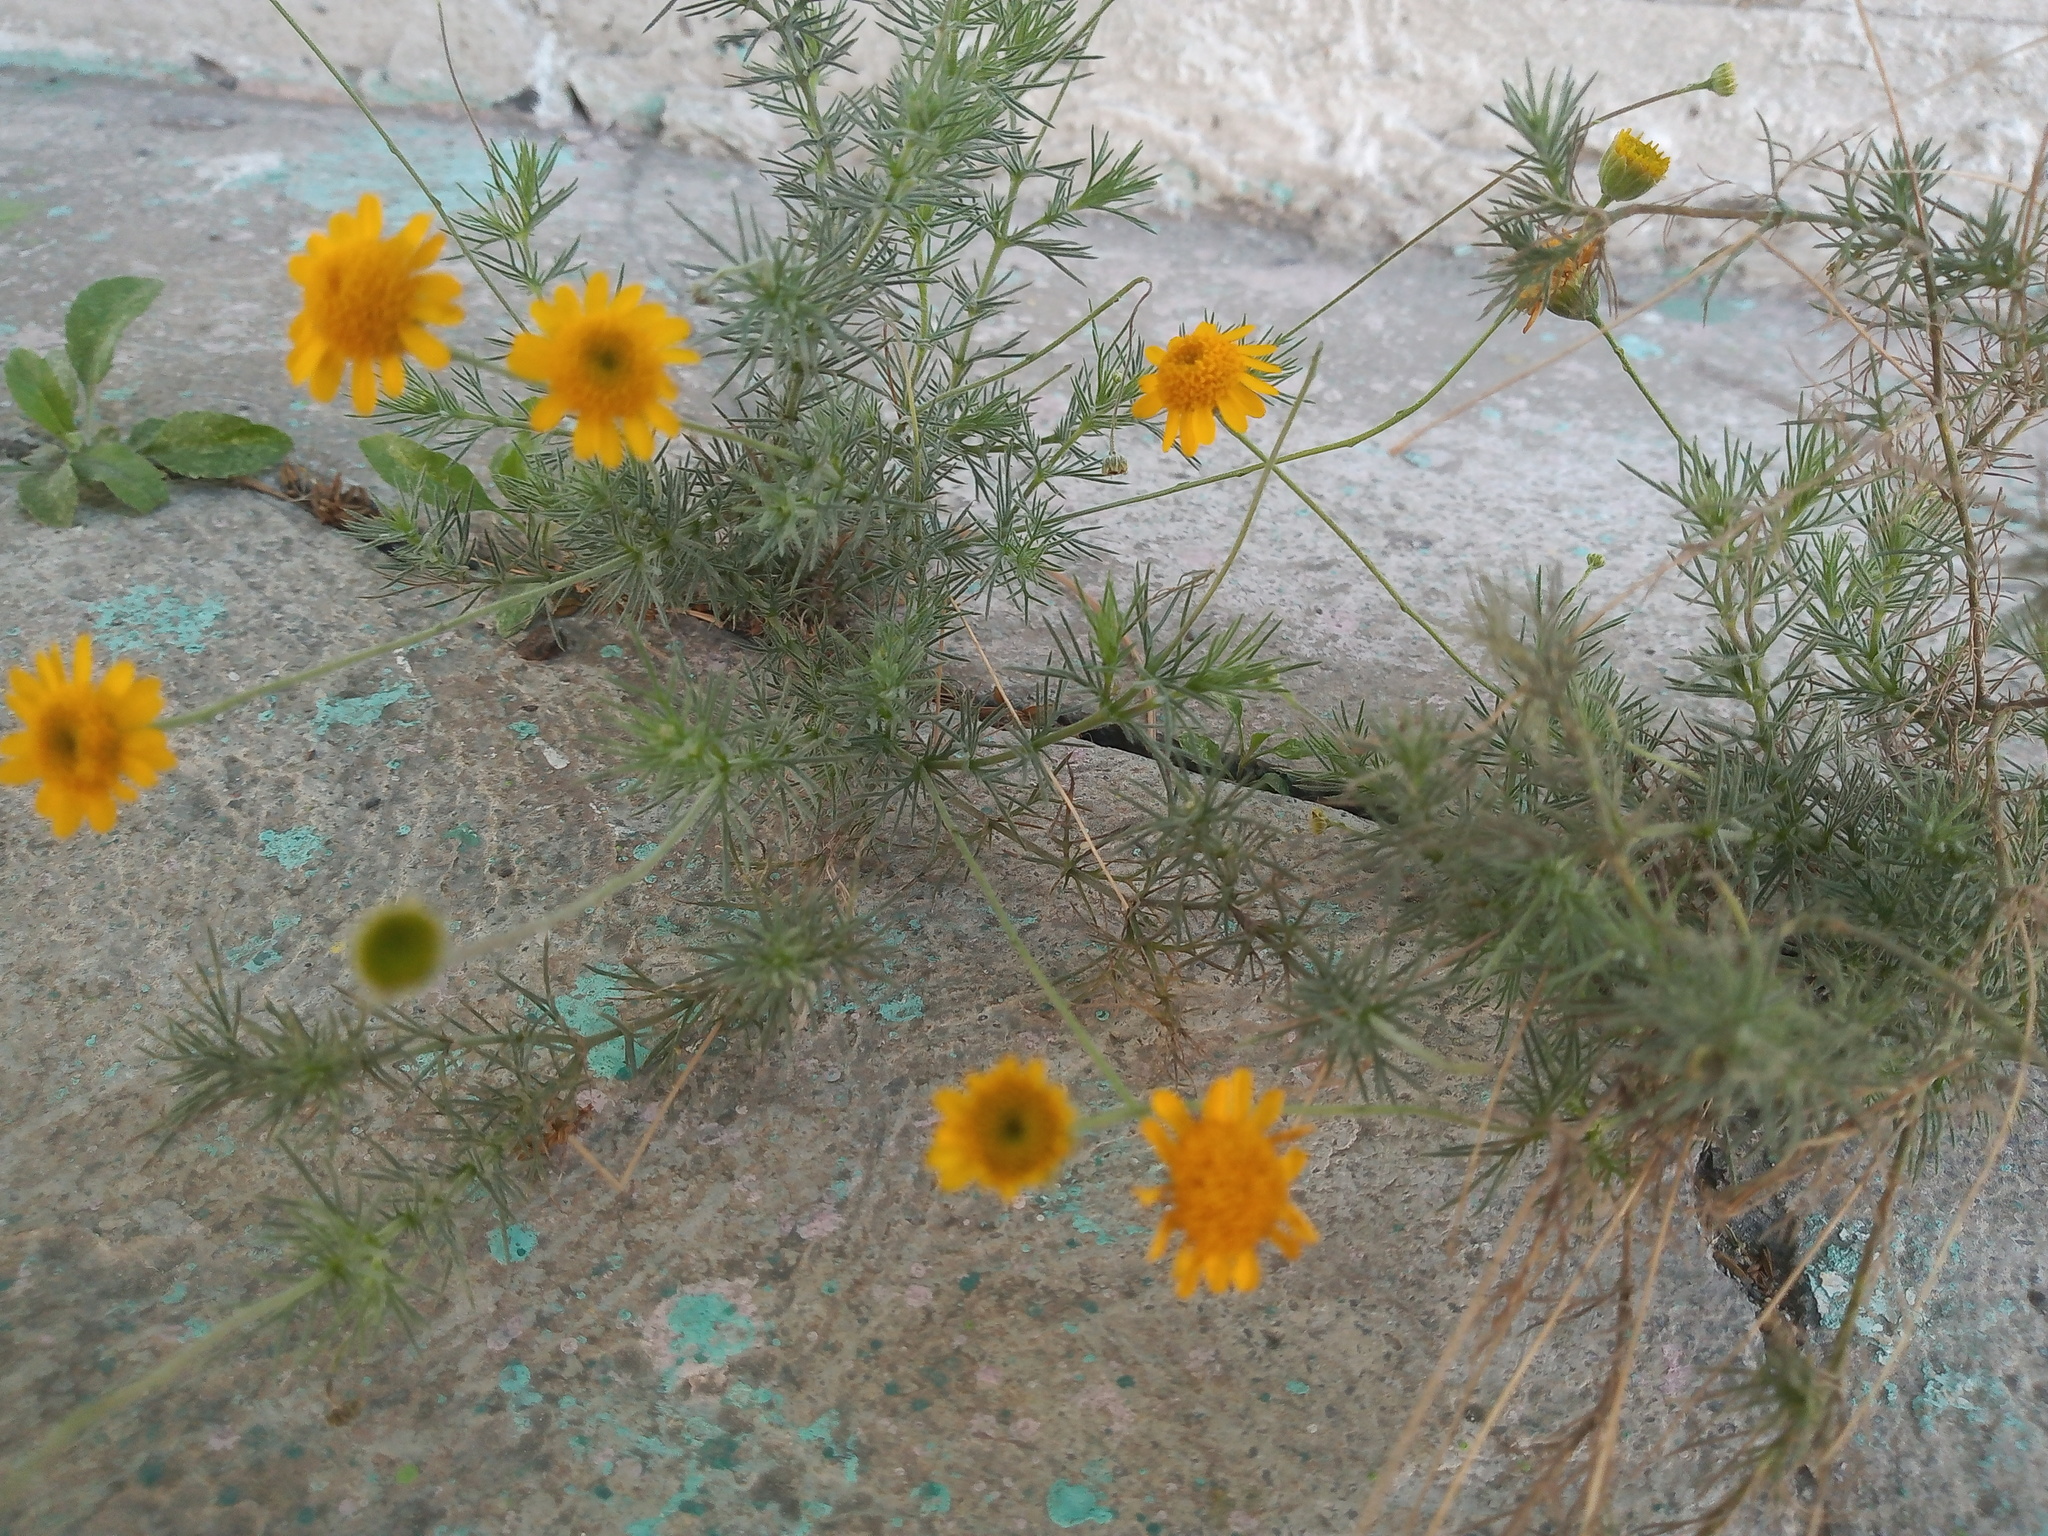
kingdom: Plantae
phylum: Tracheophyta
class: Magnoliopsida
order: Asterales
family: Asteraceae
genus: Thymophylla
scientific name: Thymophylla pentachaeta
